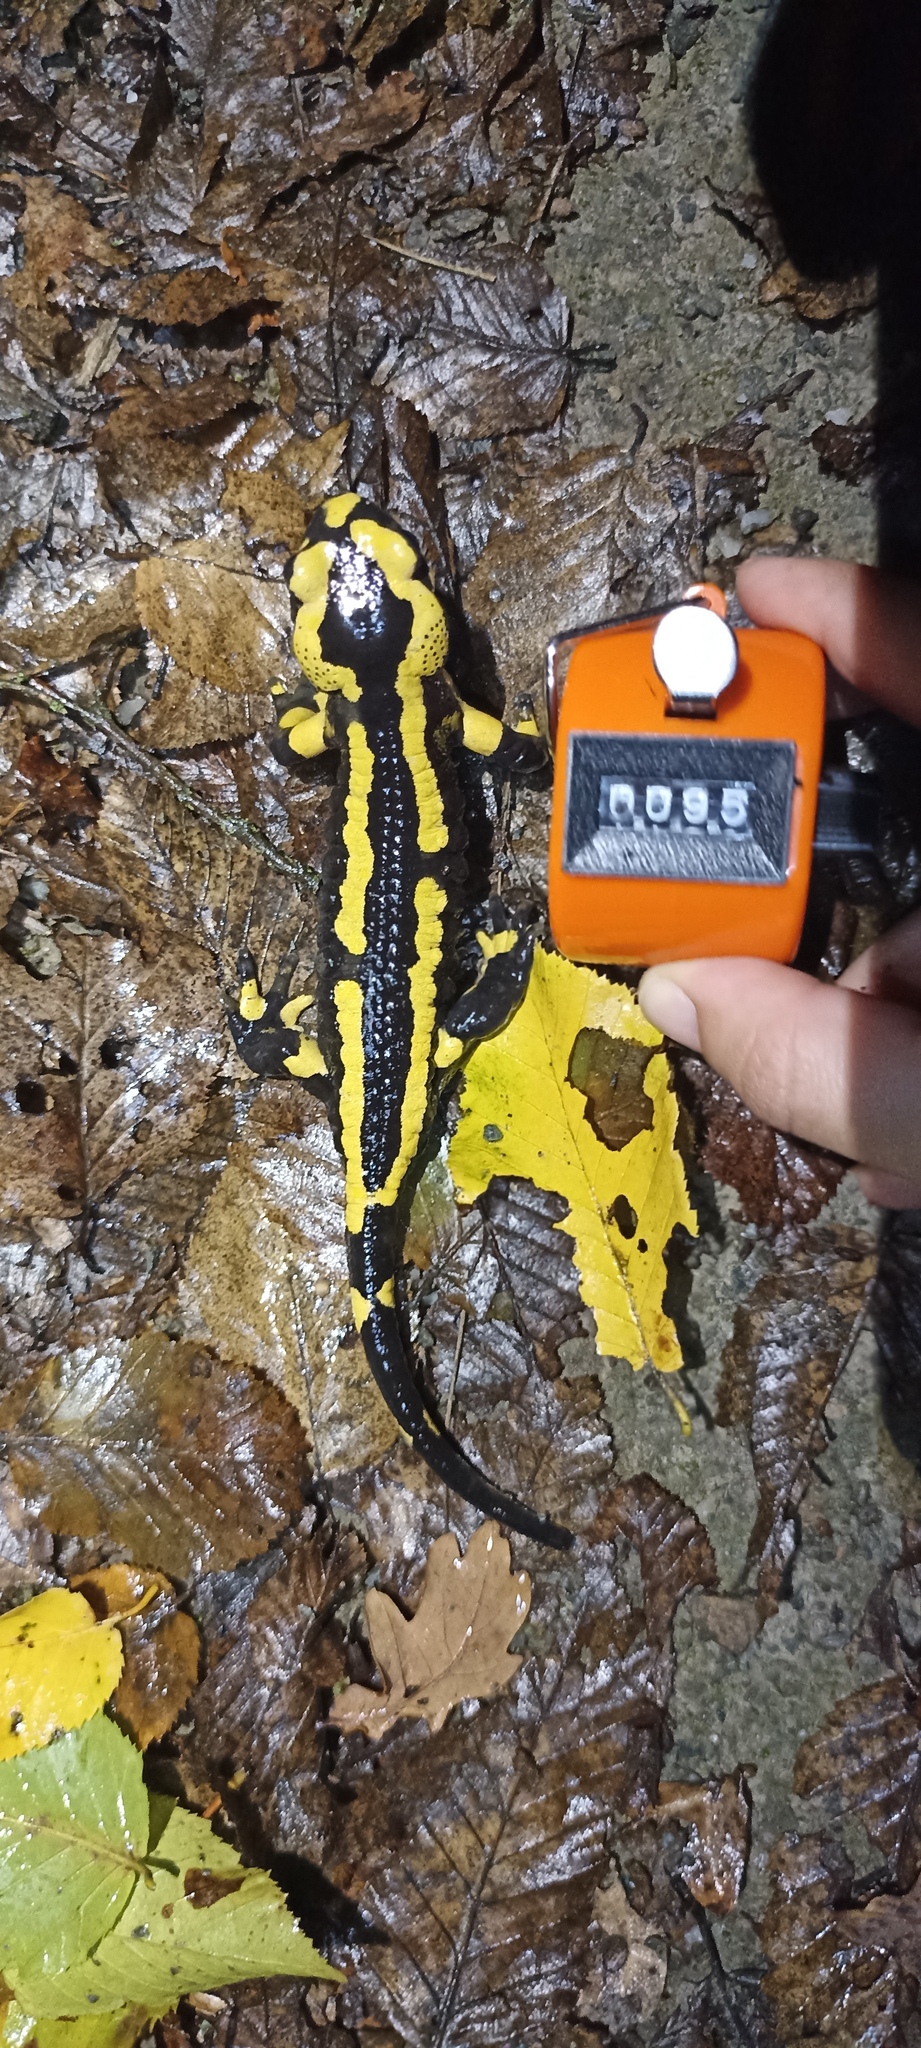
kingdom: Animalia
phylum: Chordata
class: Amphibia
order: Caudata
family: Salamandridae
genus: Salamandra
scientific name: Salamandra salamandra
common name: Fire salamander
